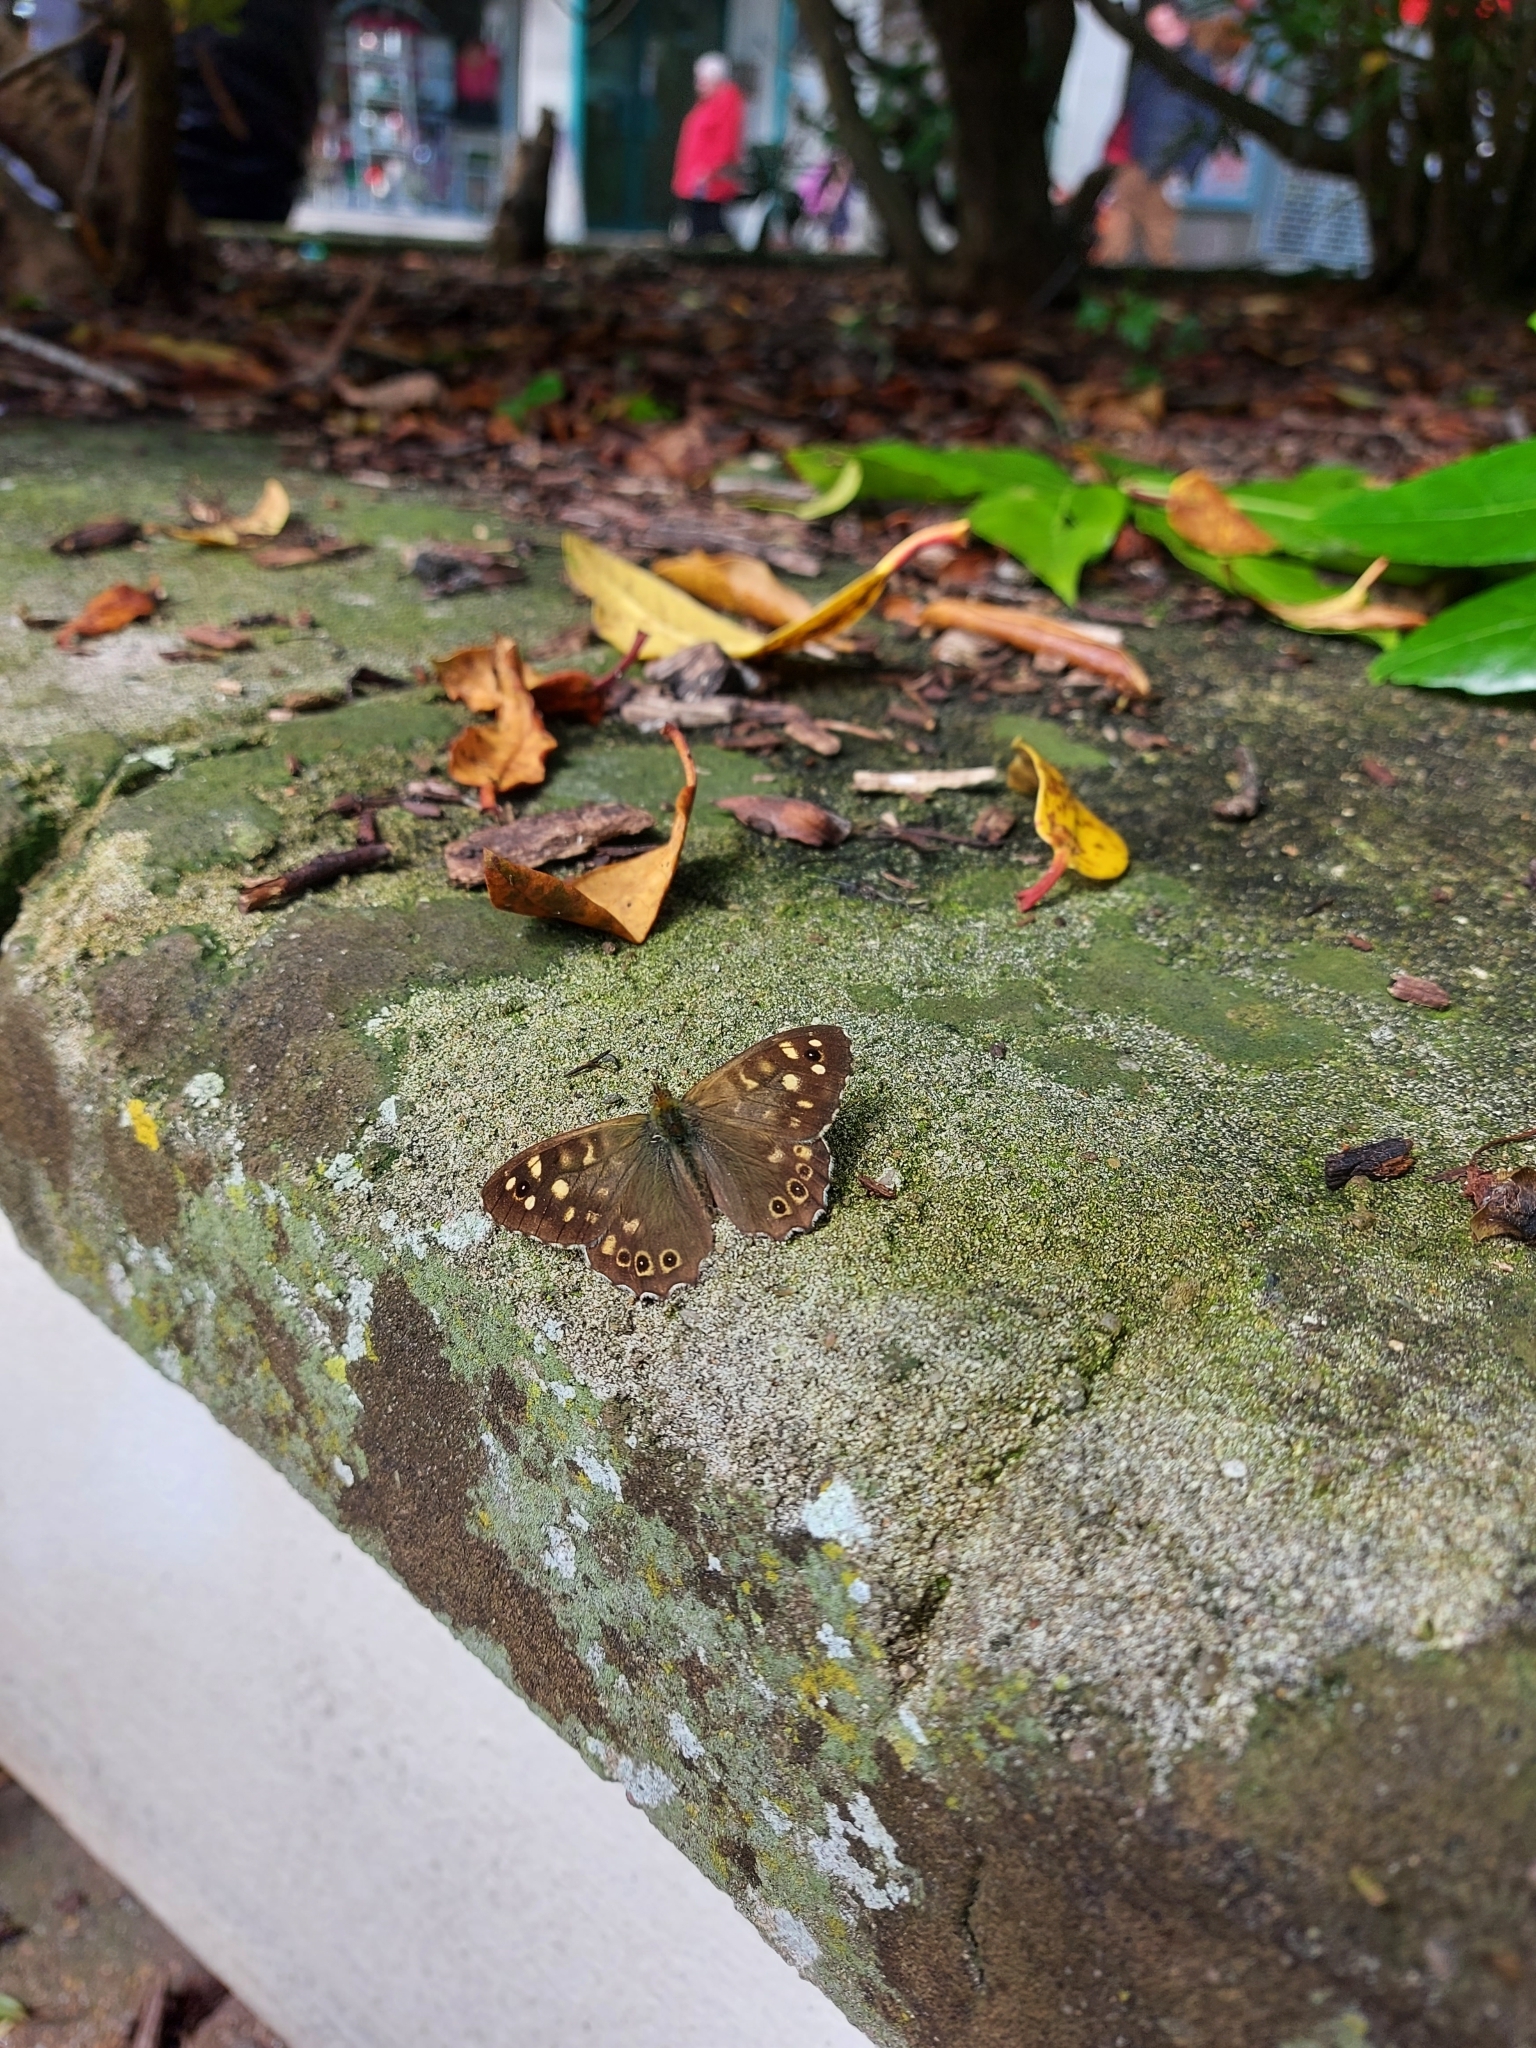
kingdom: Animalia
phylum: Arthropoda
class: Insecta
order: Lepidoptera
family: Nymphalidae
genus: Pararge
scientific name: Pararge aegeria
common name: Speckled wood
